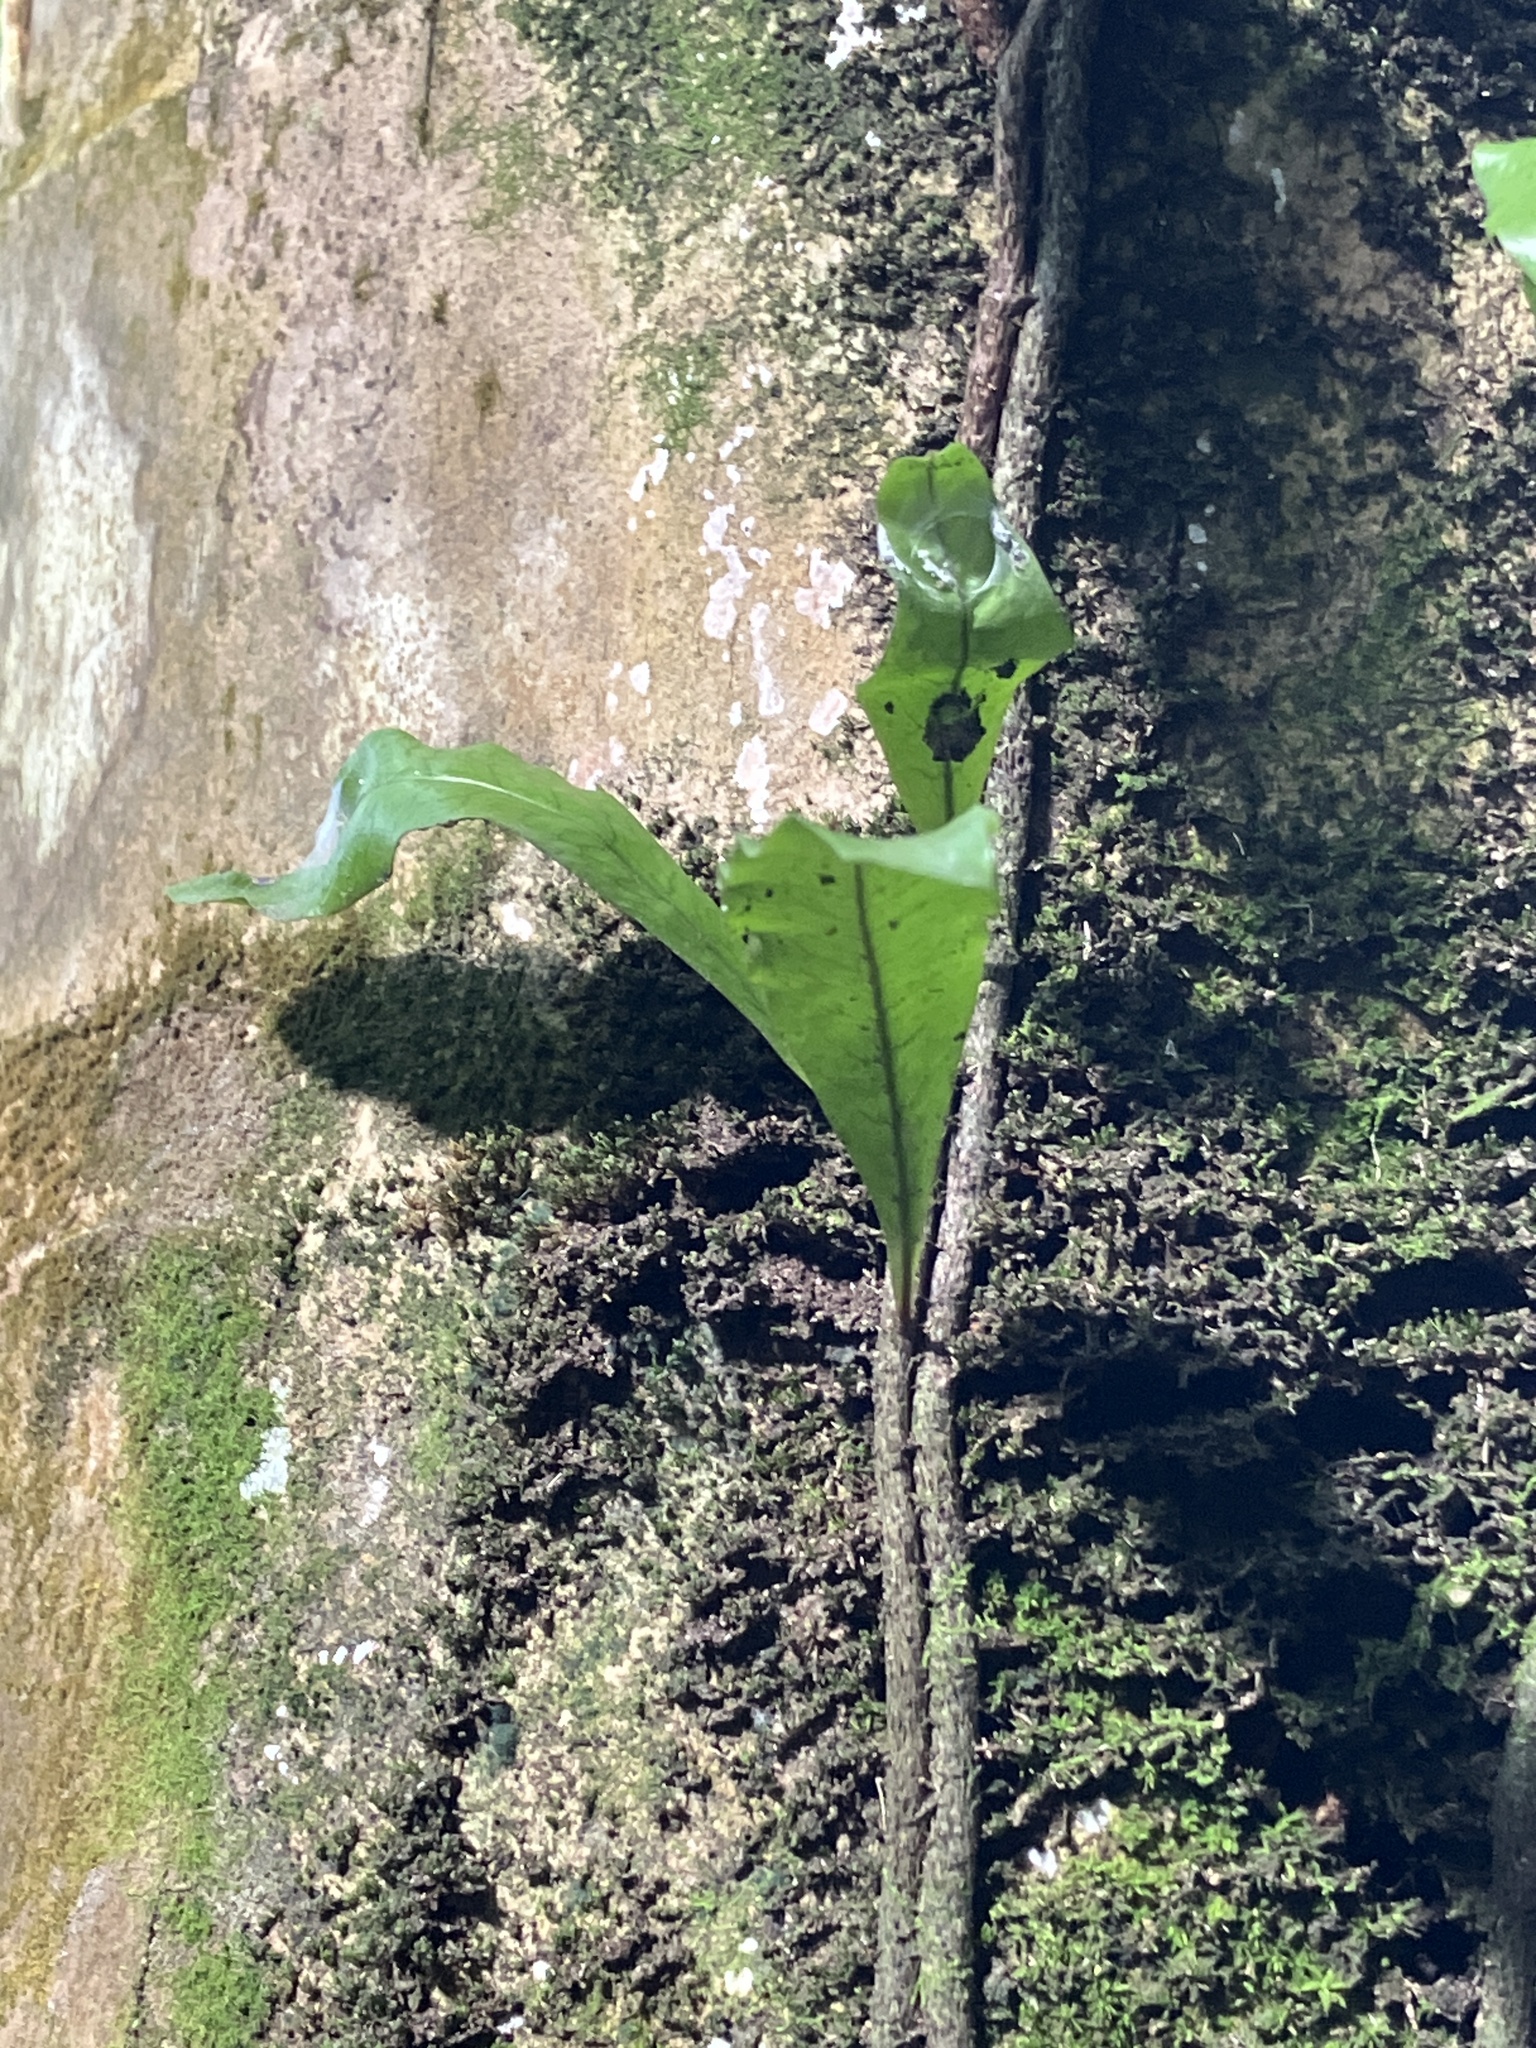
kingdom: Plantae
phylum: Tracheophyta
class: Polypodiopsida
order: Polypodiales
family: Polypodiaceae
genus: Microgramma
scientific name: Microgramma lycopodioides
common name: Bastard catclaw
